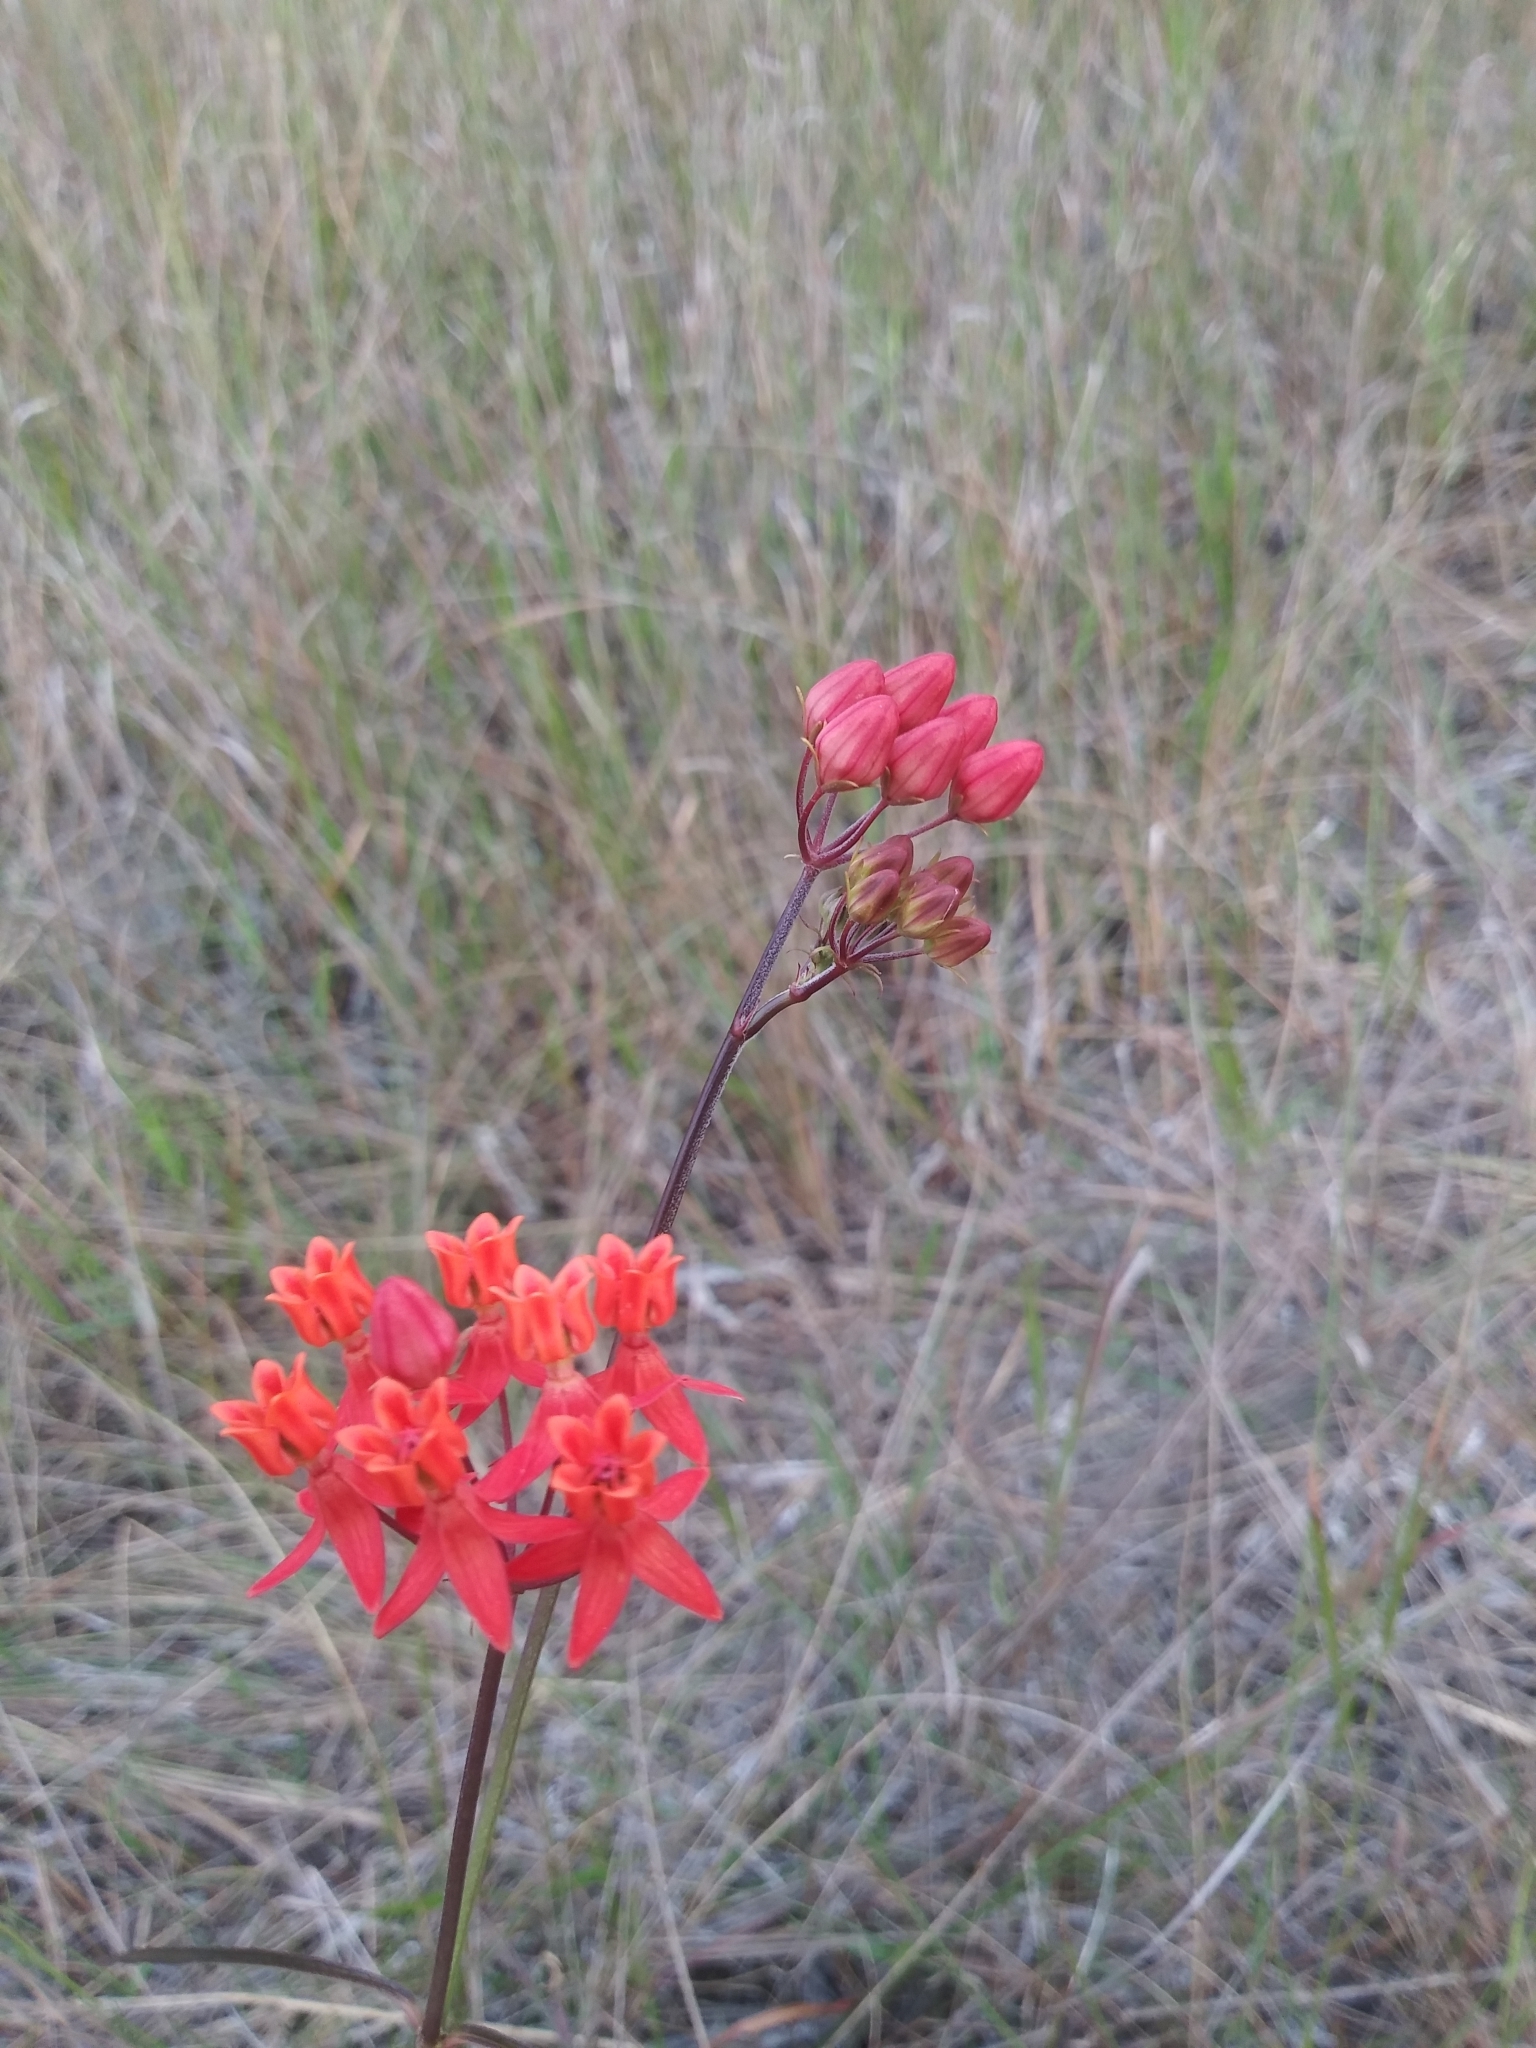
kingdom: Plantae
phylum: Tracheophyta
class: Magnoliopsida
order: Gentianales
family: Apocynaceae
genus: Asclepias
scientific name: Asclepias lanceolata
